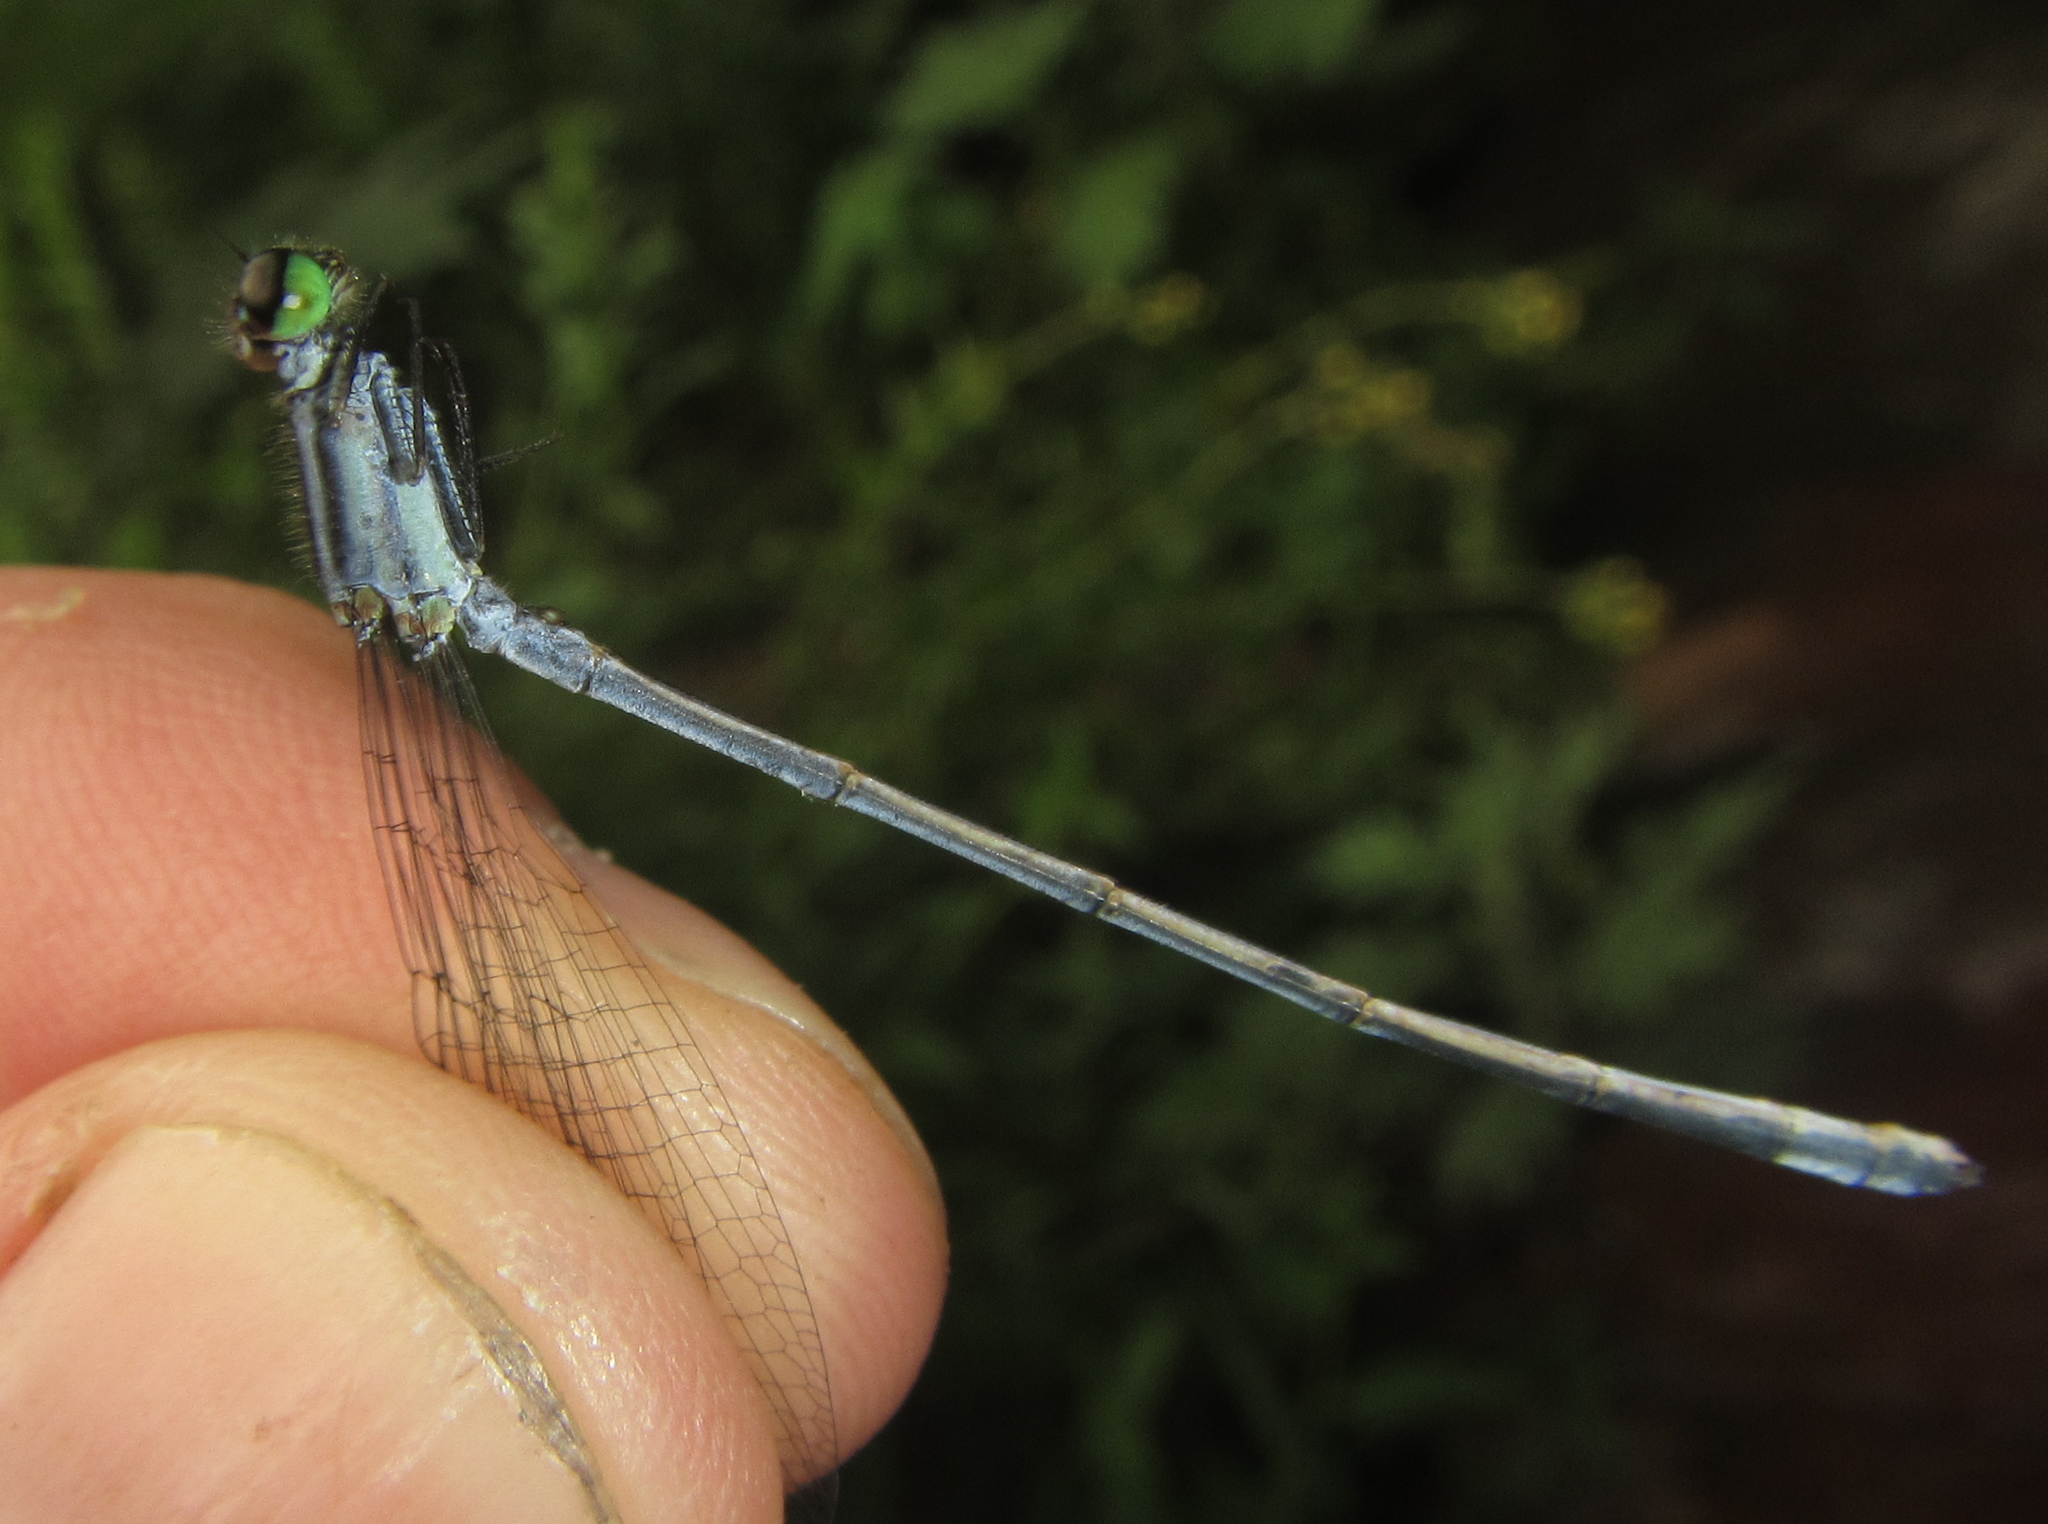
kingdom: Animalia
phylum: Arthropoda
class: Insecta
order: Odonata
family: Coenagrionidae
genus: Pseudagrion
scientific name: Pseudagrion kersteni
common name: Powder-faced sprite
